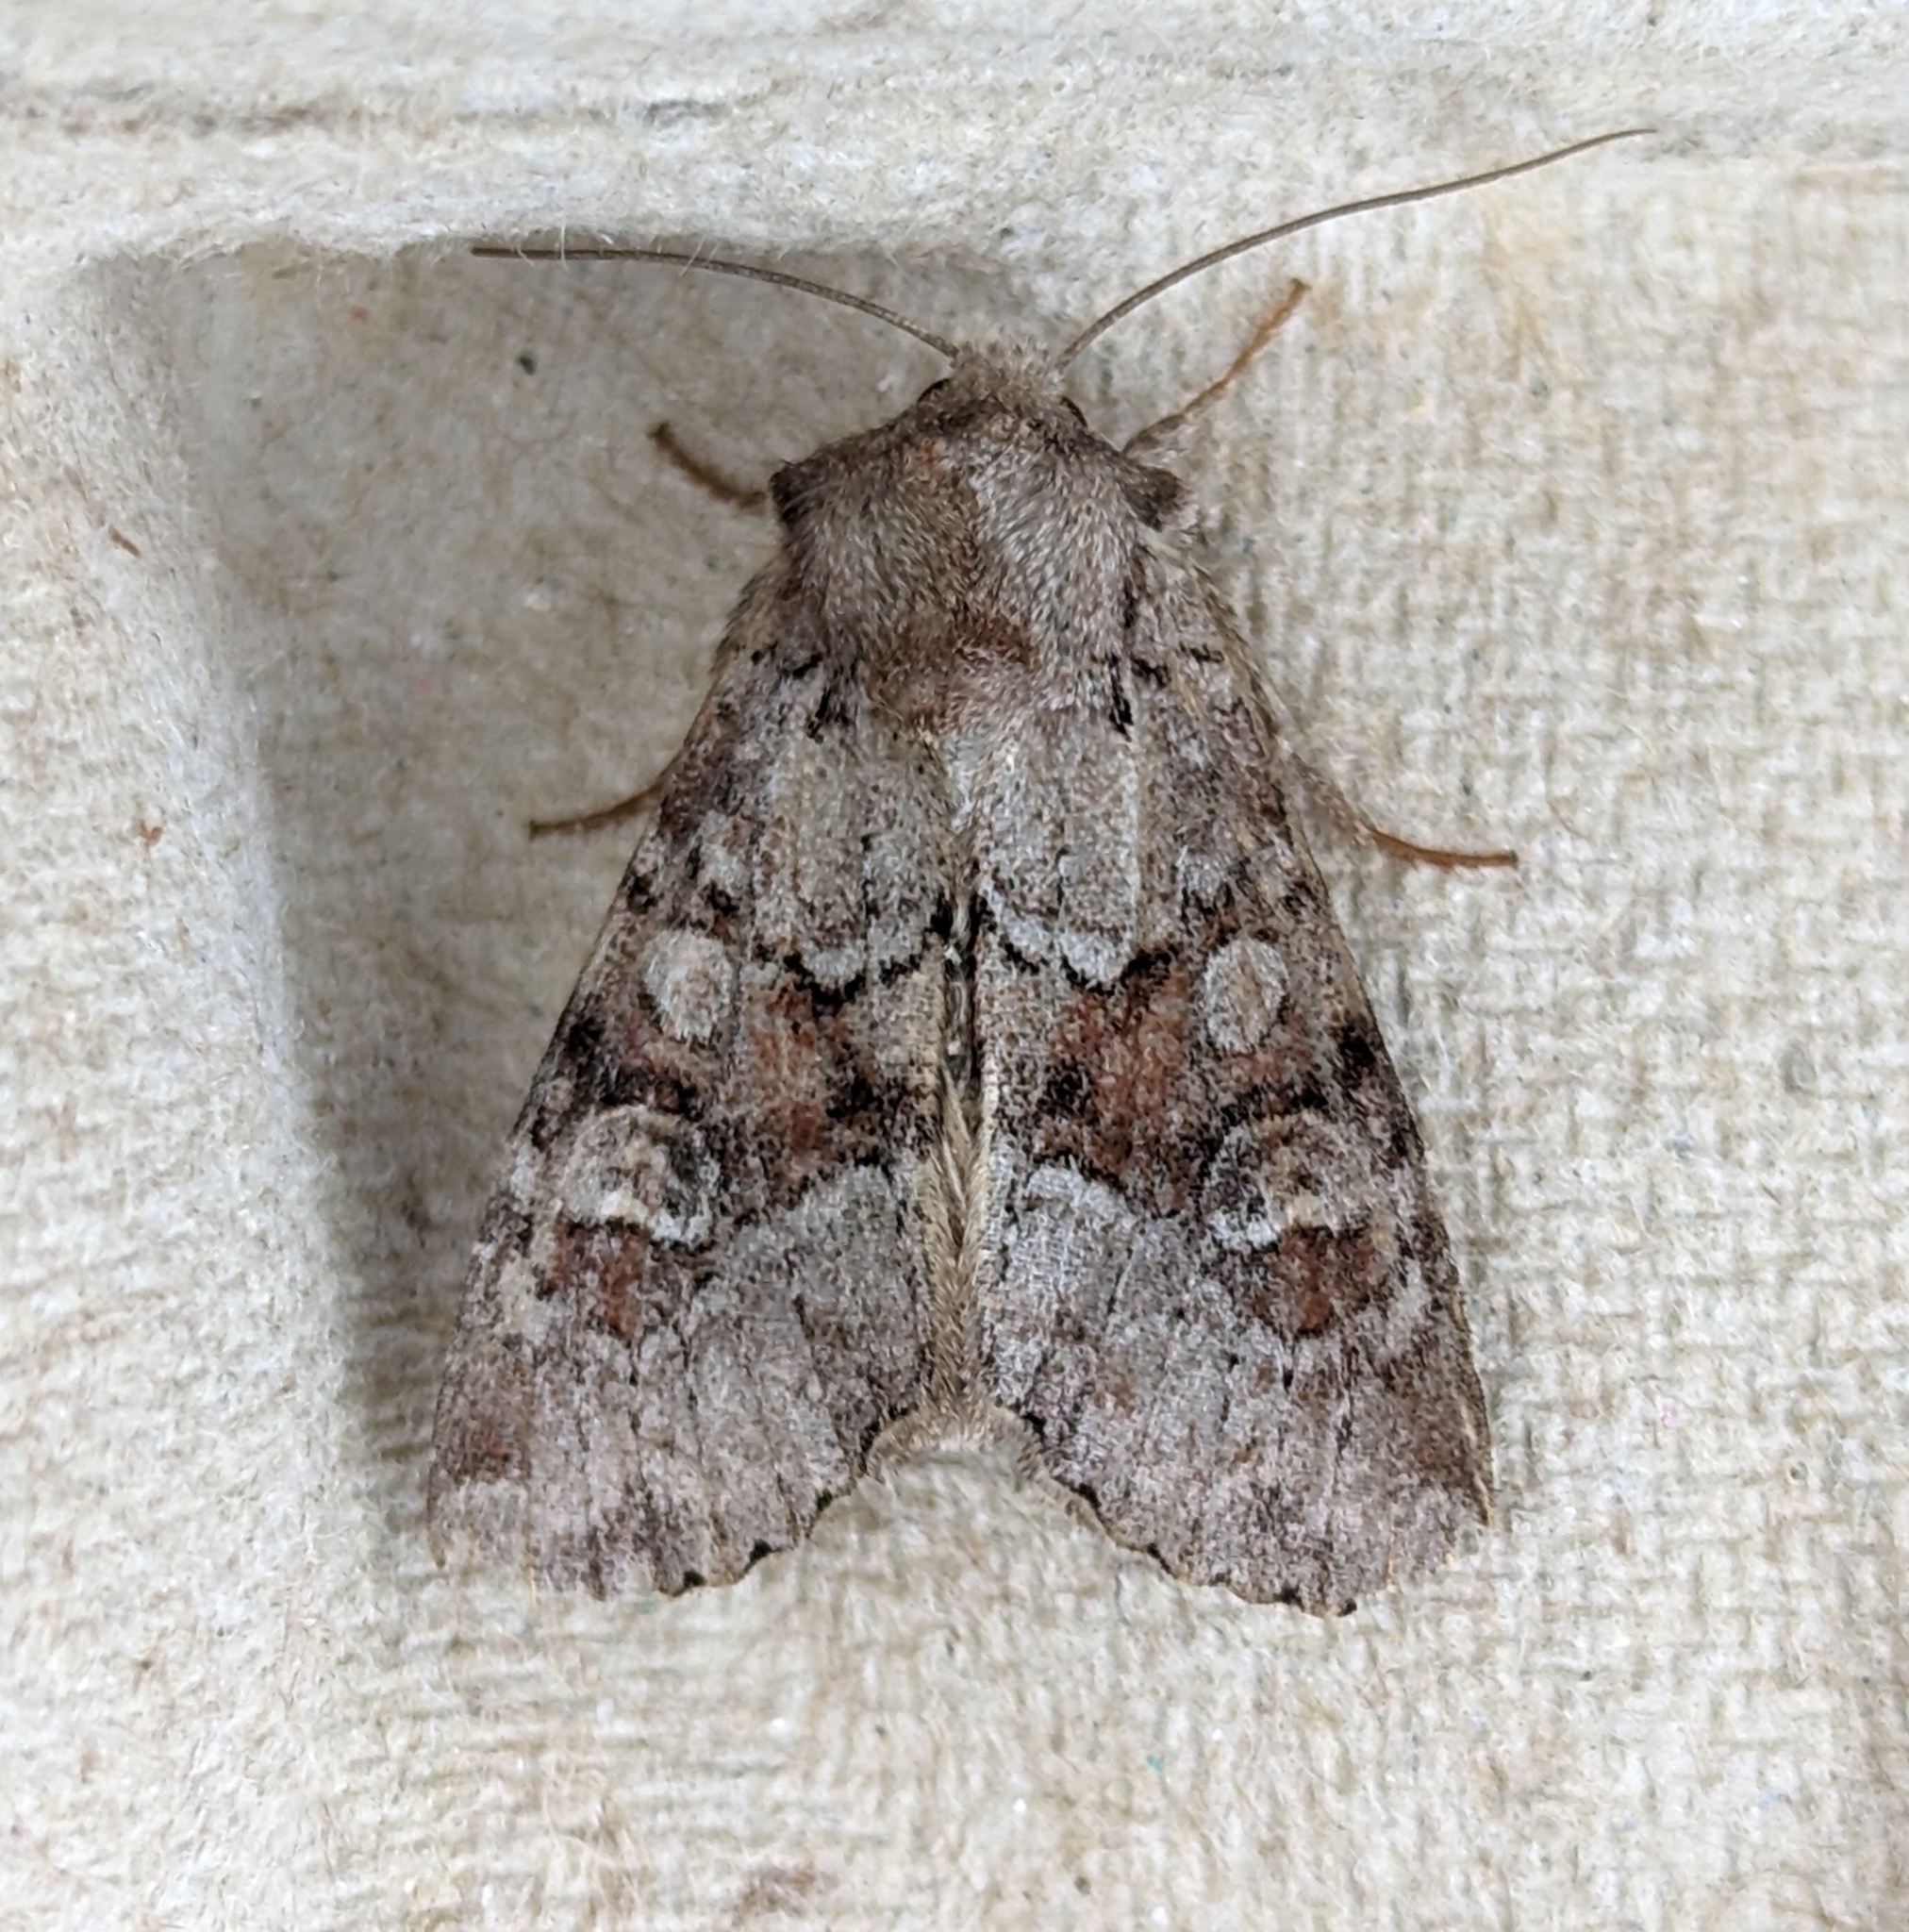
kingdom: Animalia
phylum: Arthropoda
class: Insecta
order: Lepidoptera
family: Noctuidae
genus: Apamea
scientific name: Apamea sordens
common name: Rustic shoulder-knot
